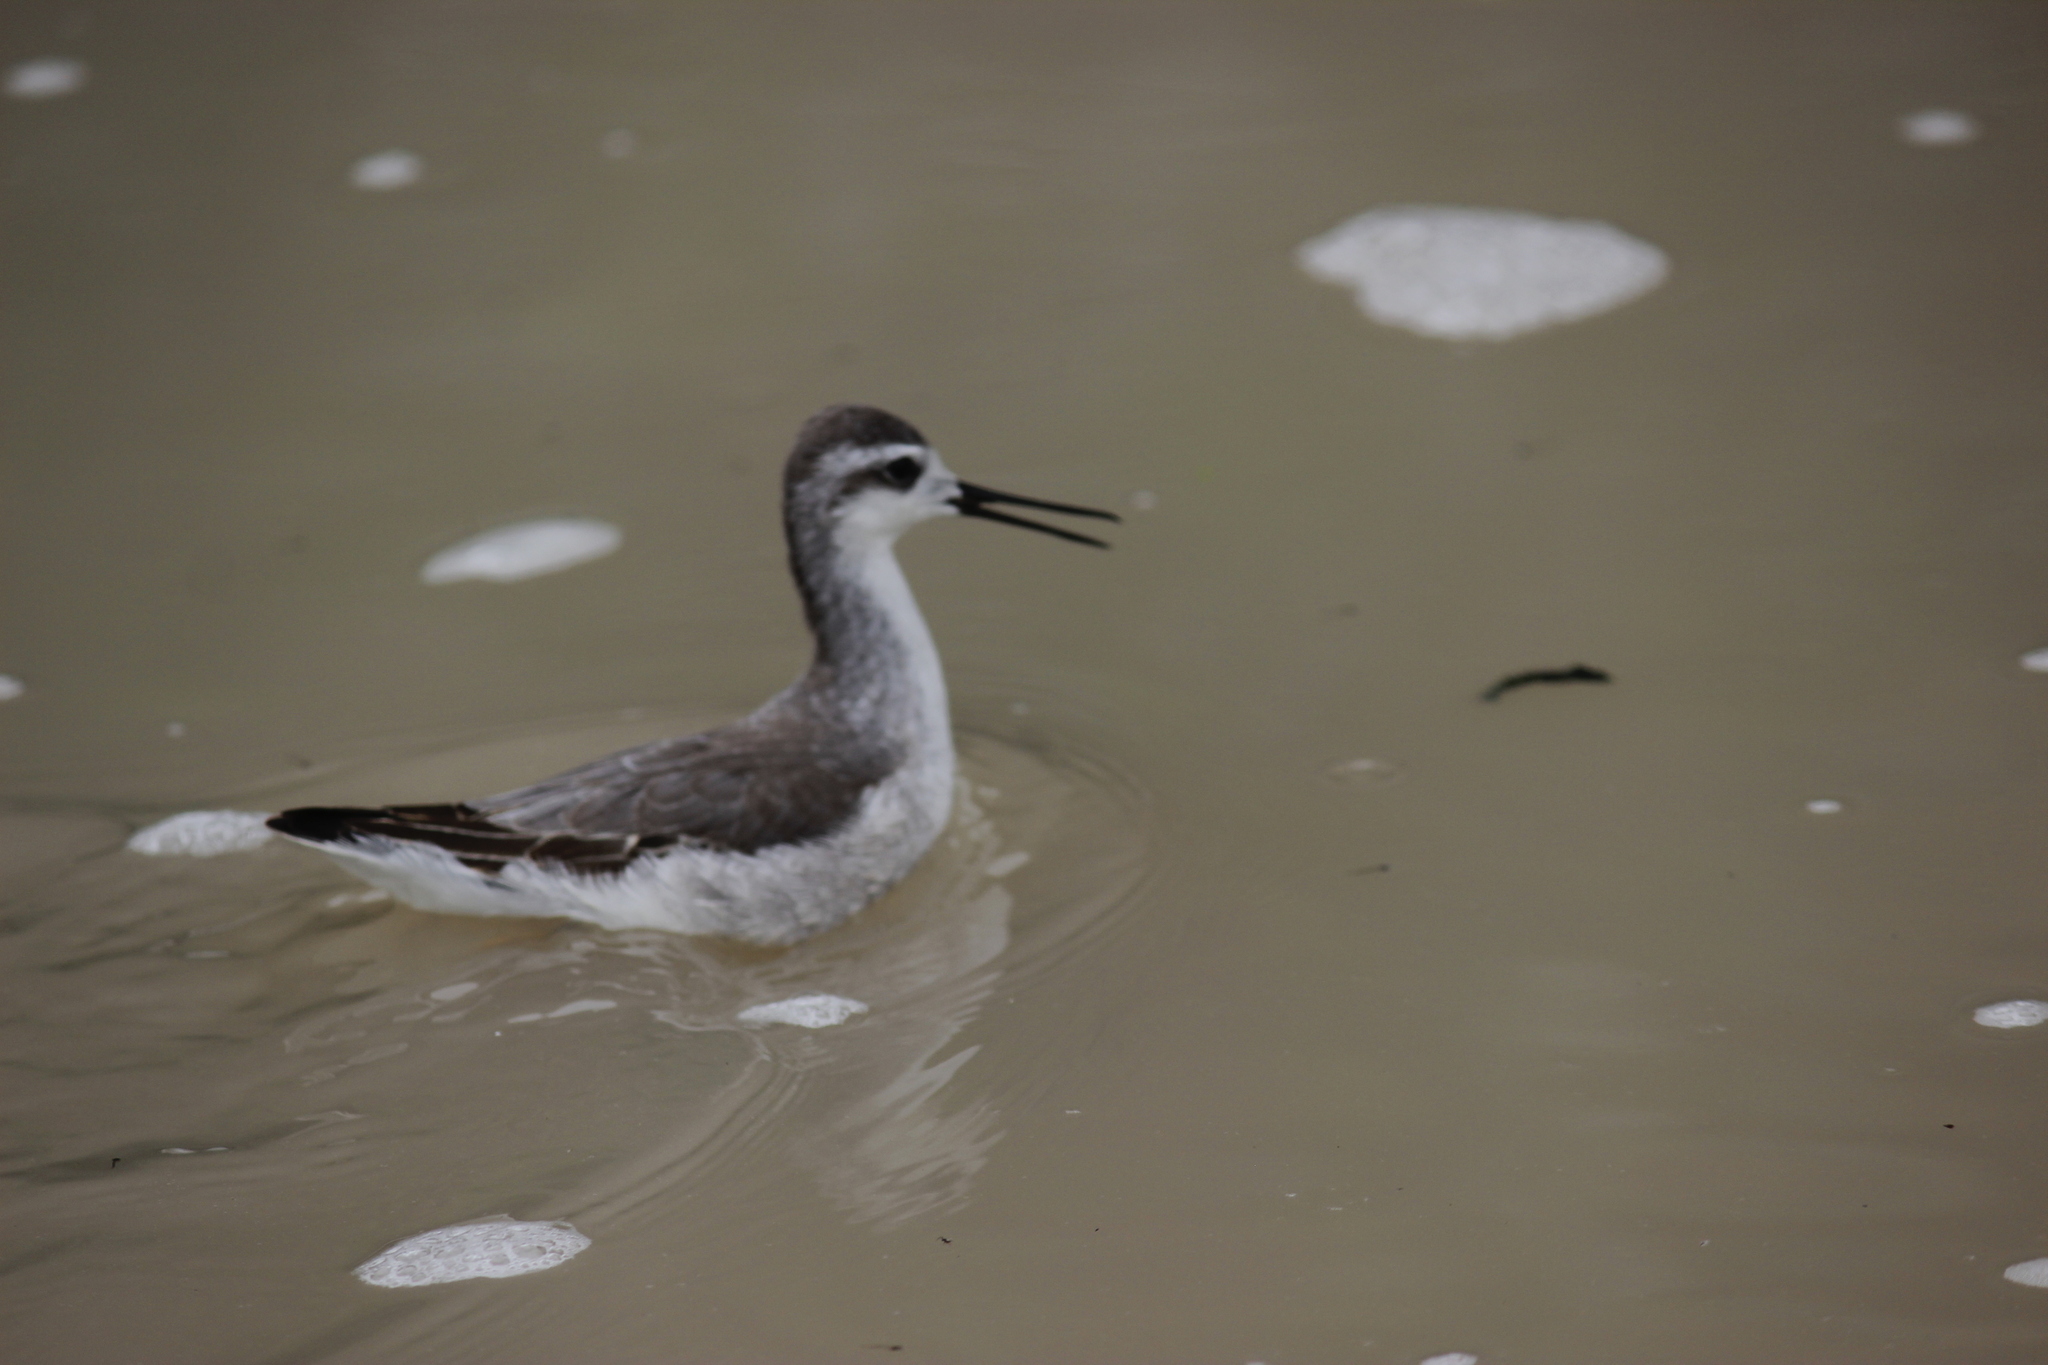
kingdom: Animalia
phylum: Chordata
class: Aves
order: Charadriiformes
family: Scolopacidae
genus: Phalaropus
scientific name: Phalaropus tricolor
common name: Wilson's phalarope
